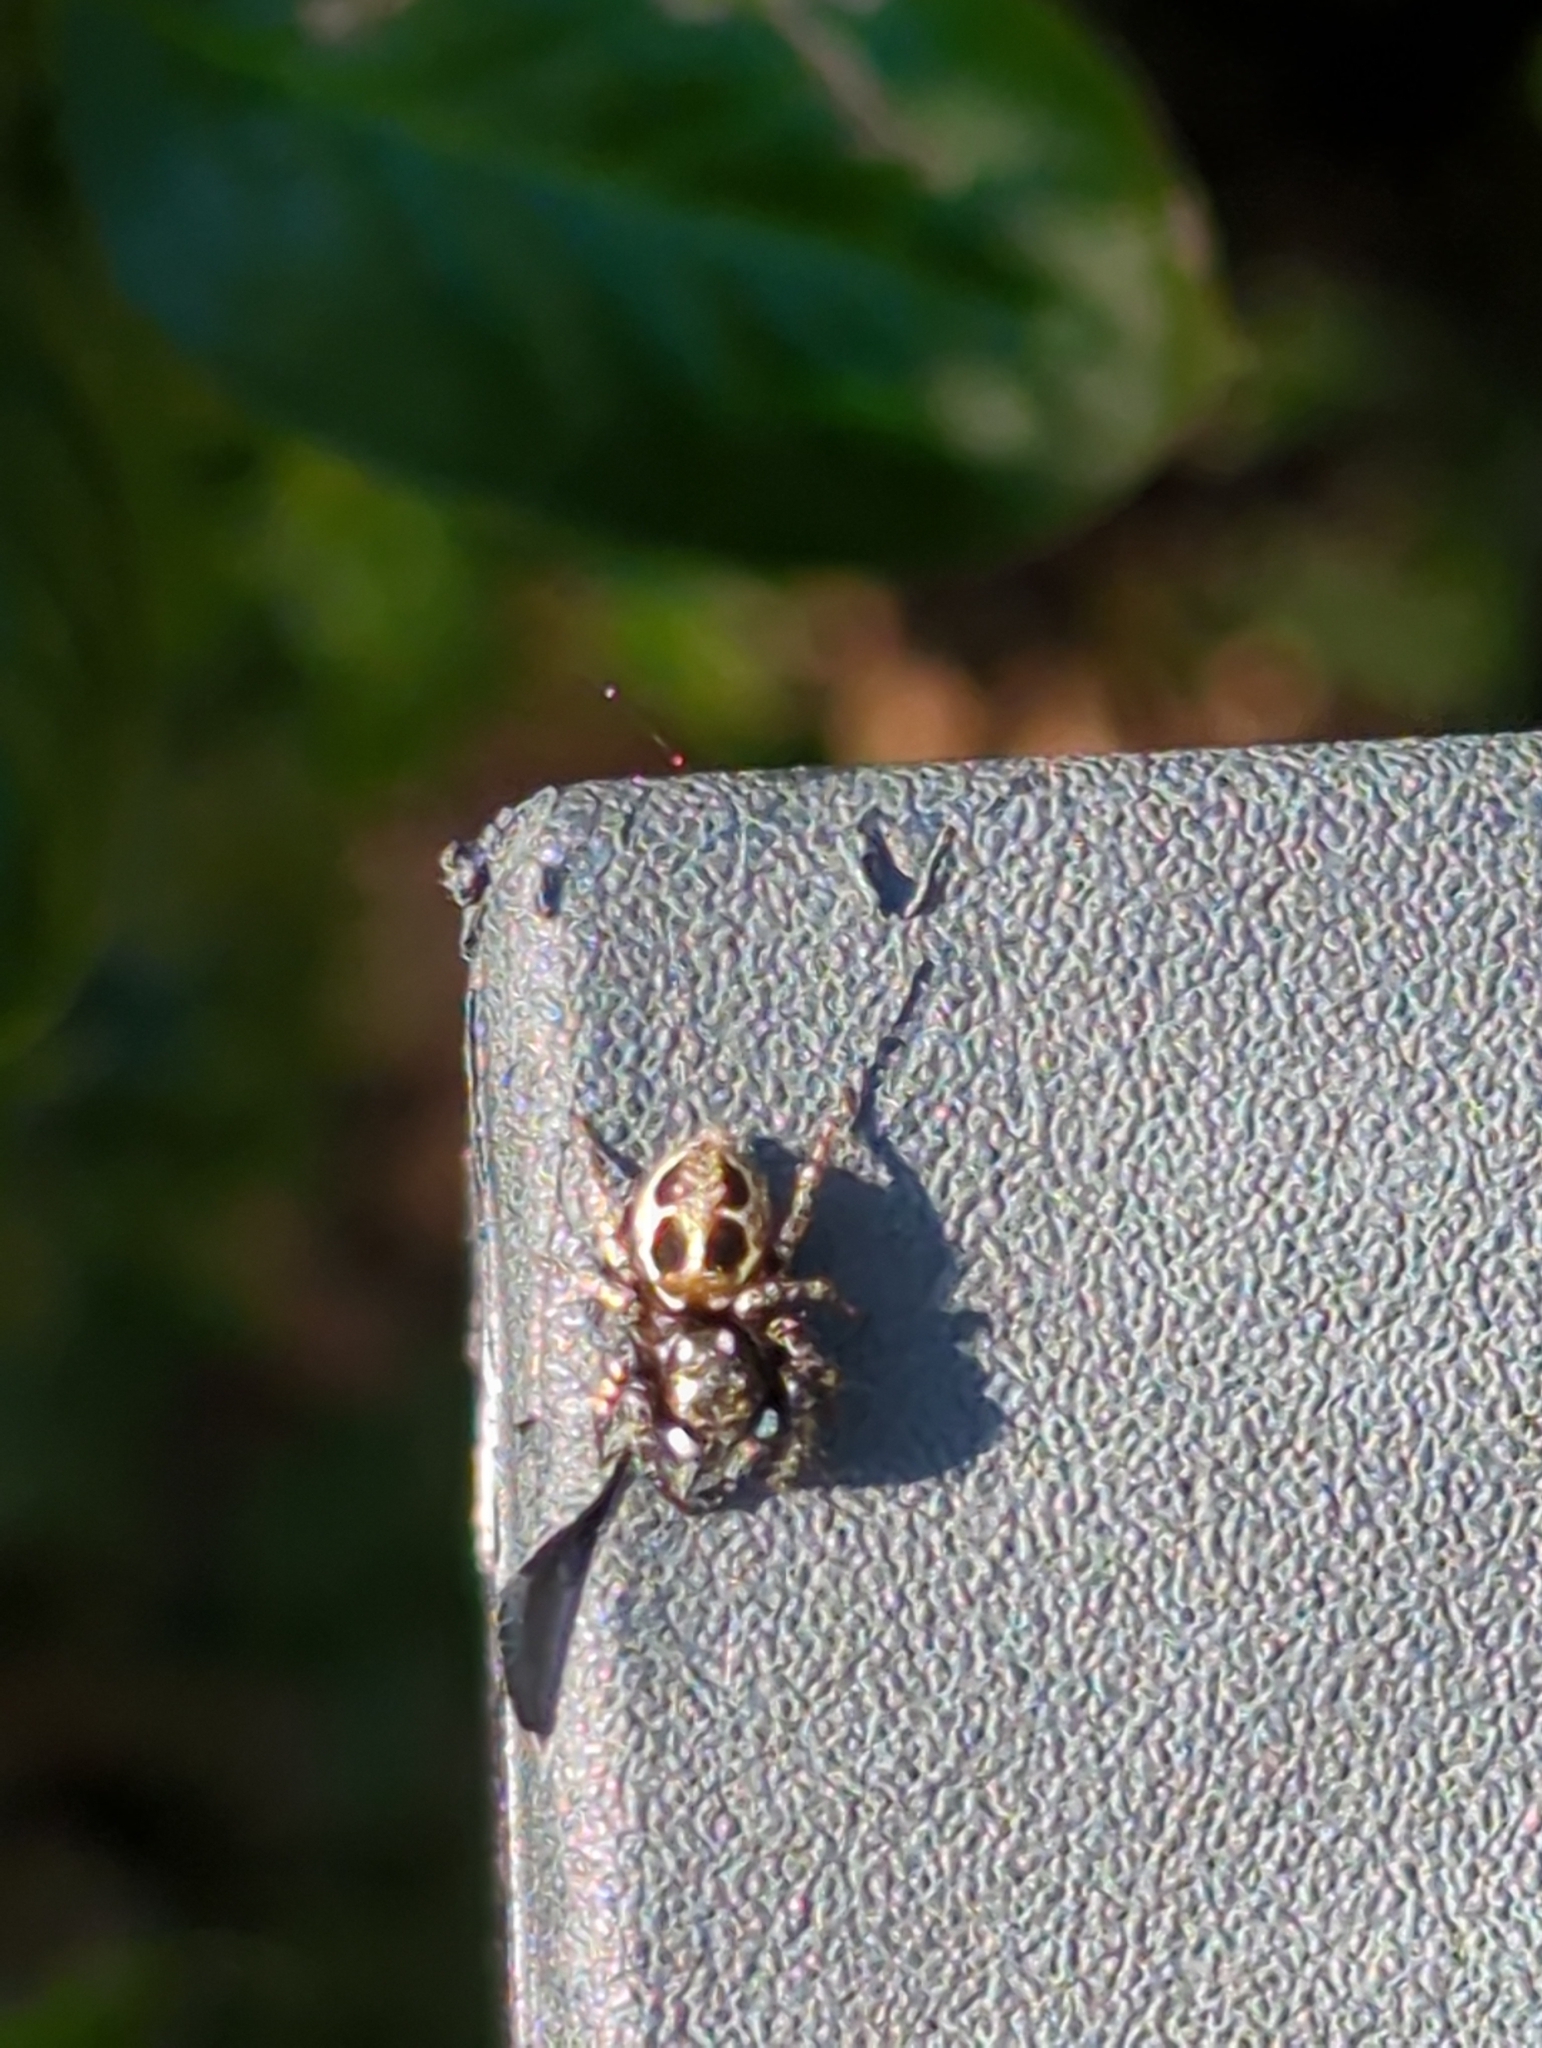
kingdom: Animalia
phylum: Arthropoda
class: Arachnida
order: Araneae
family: Salticidae
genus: Anasaitis
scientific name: Anasaitis canosa
